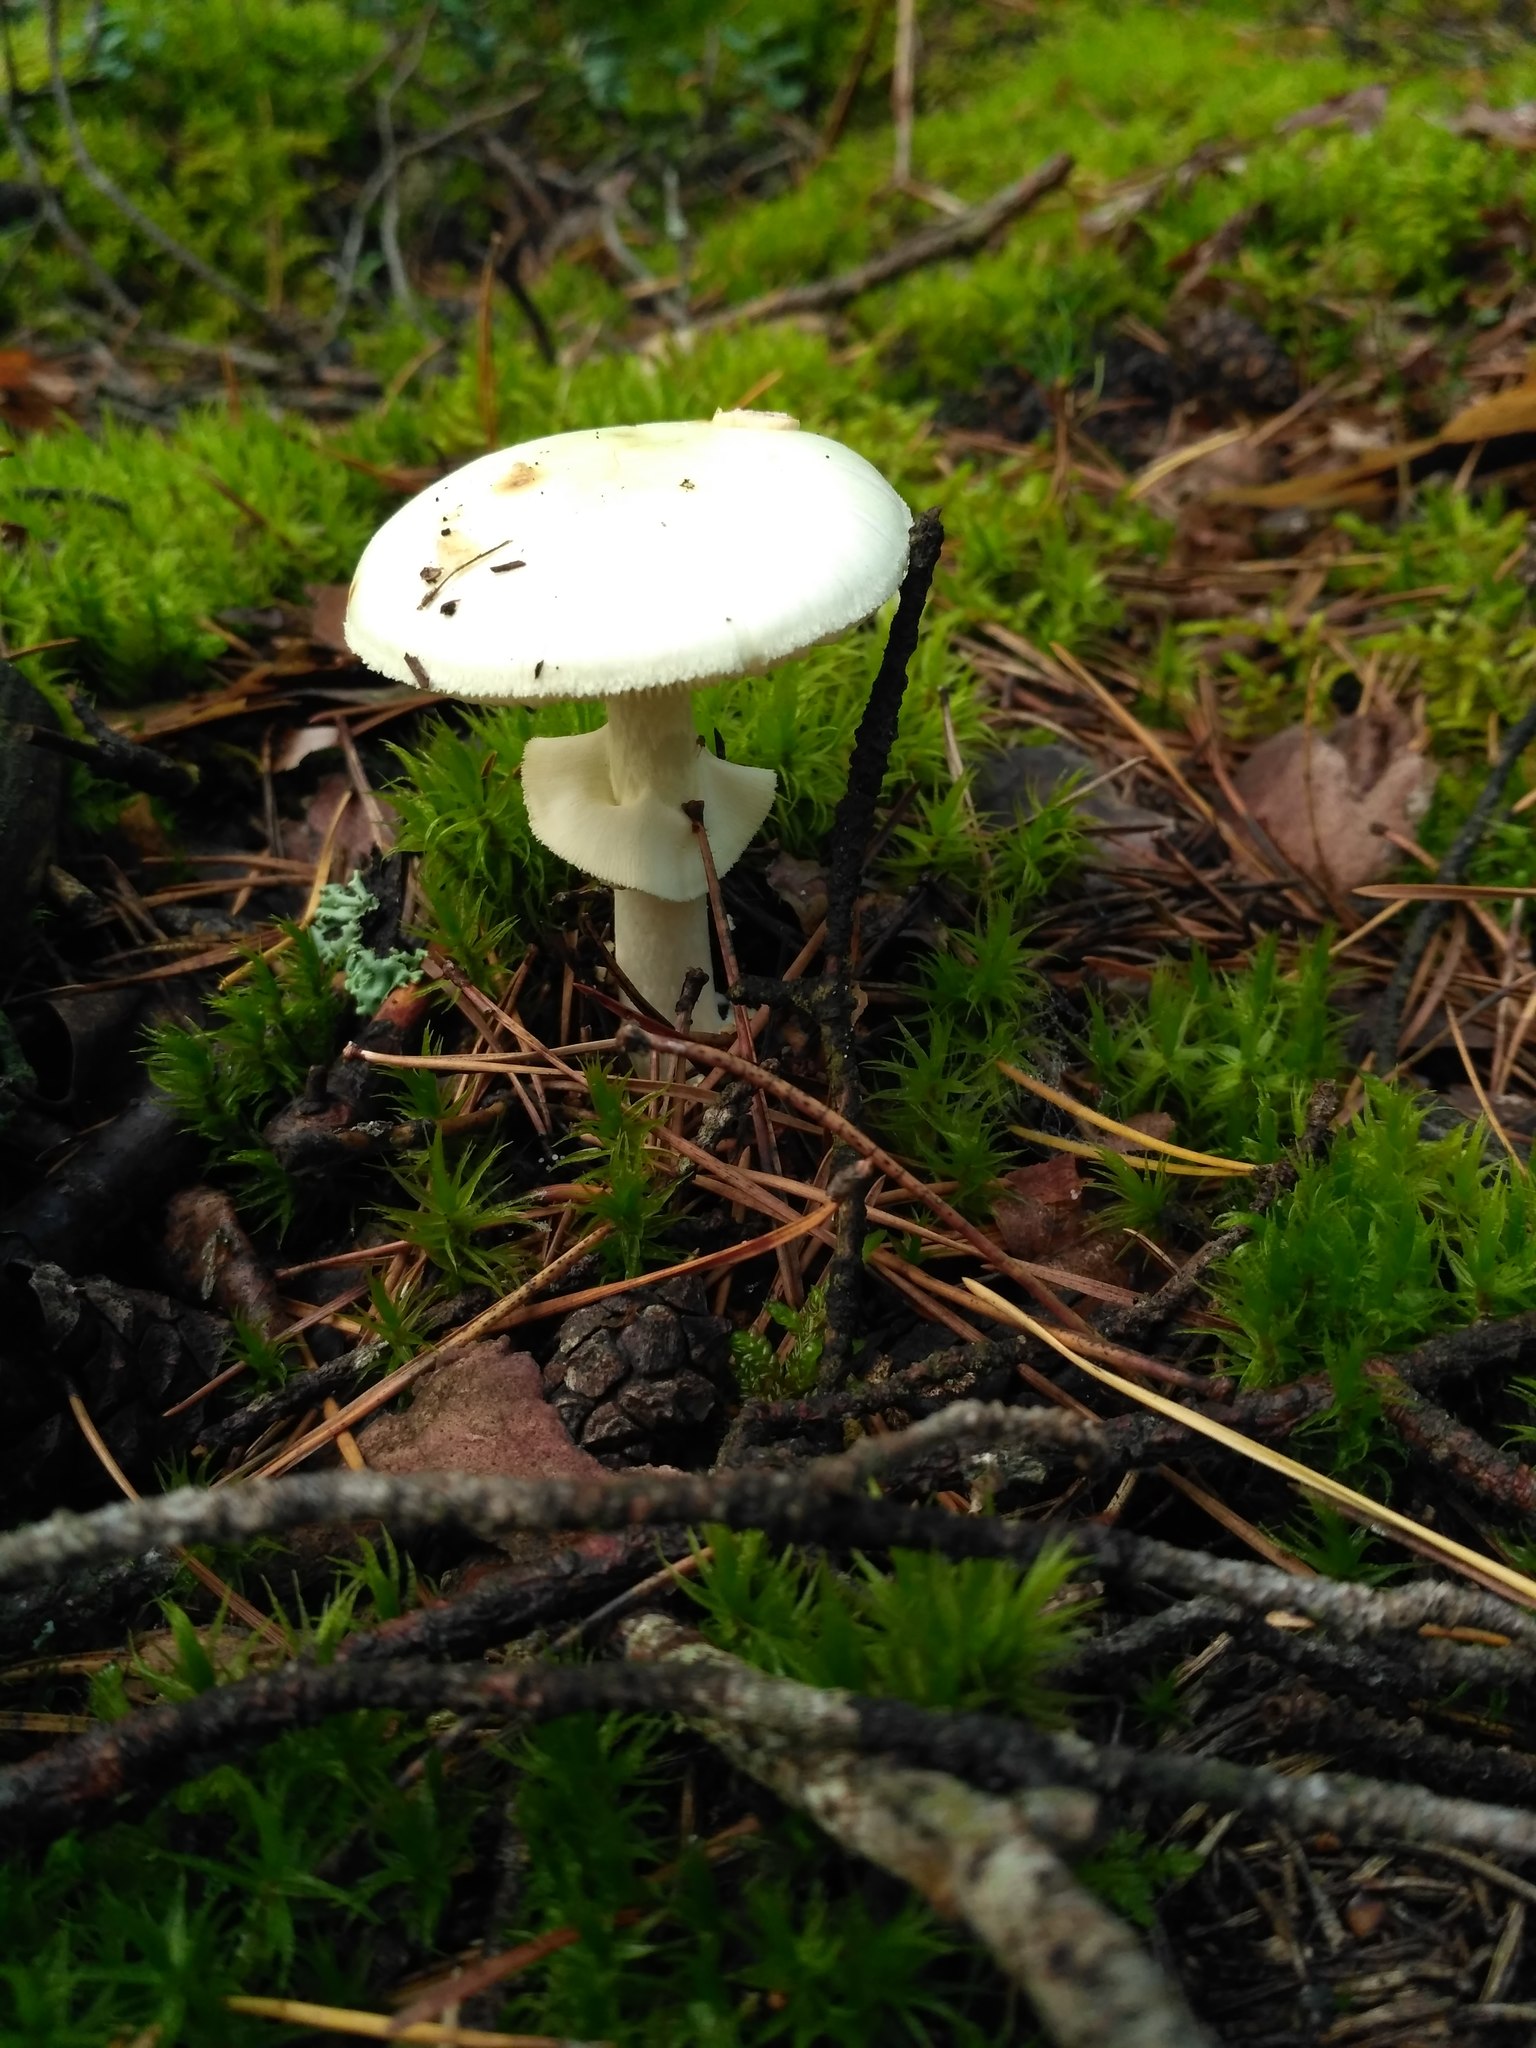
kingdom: Fungi
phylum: Basidiomycota
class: Agaricomycetes
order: Agaricales
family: Amanitaceae
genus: Amanita
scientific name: Amanita citrina
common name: False death-cap
